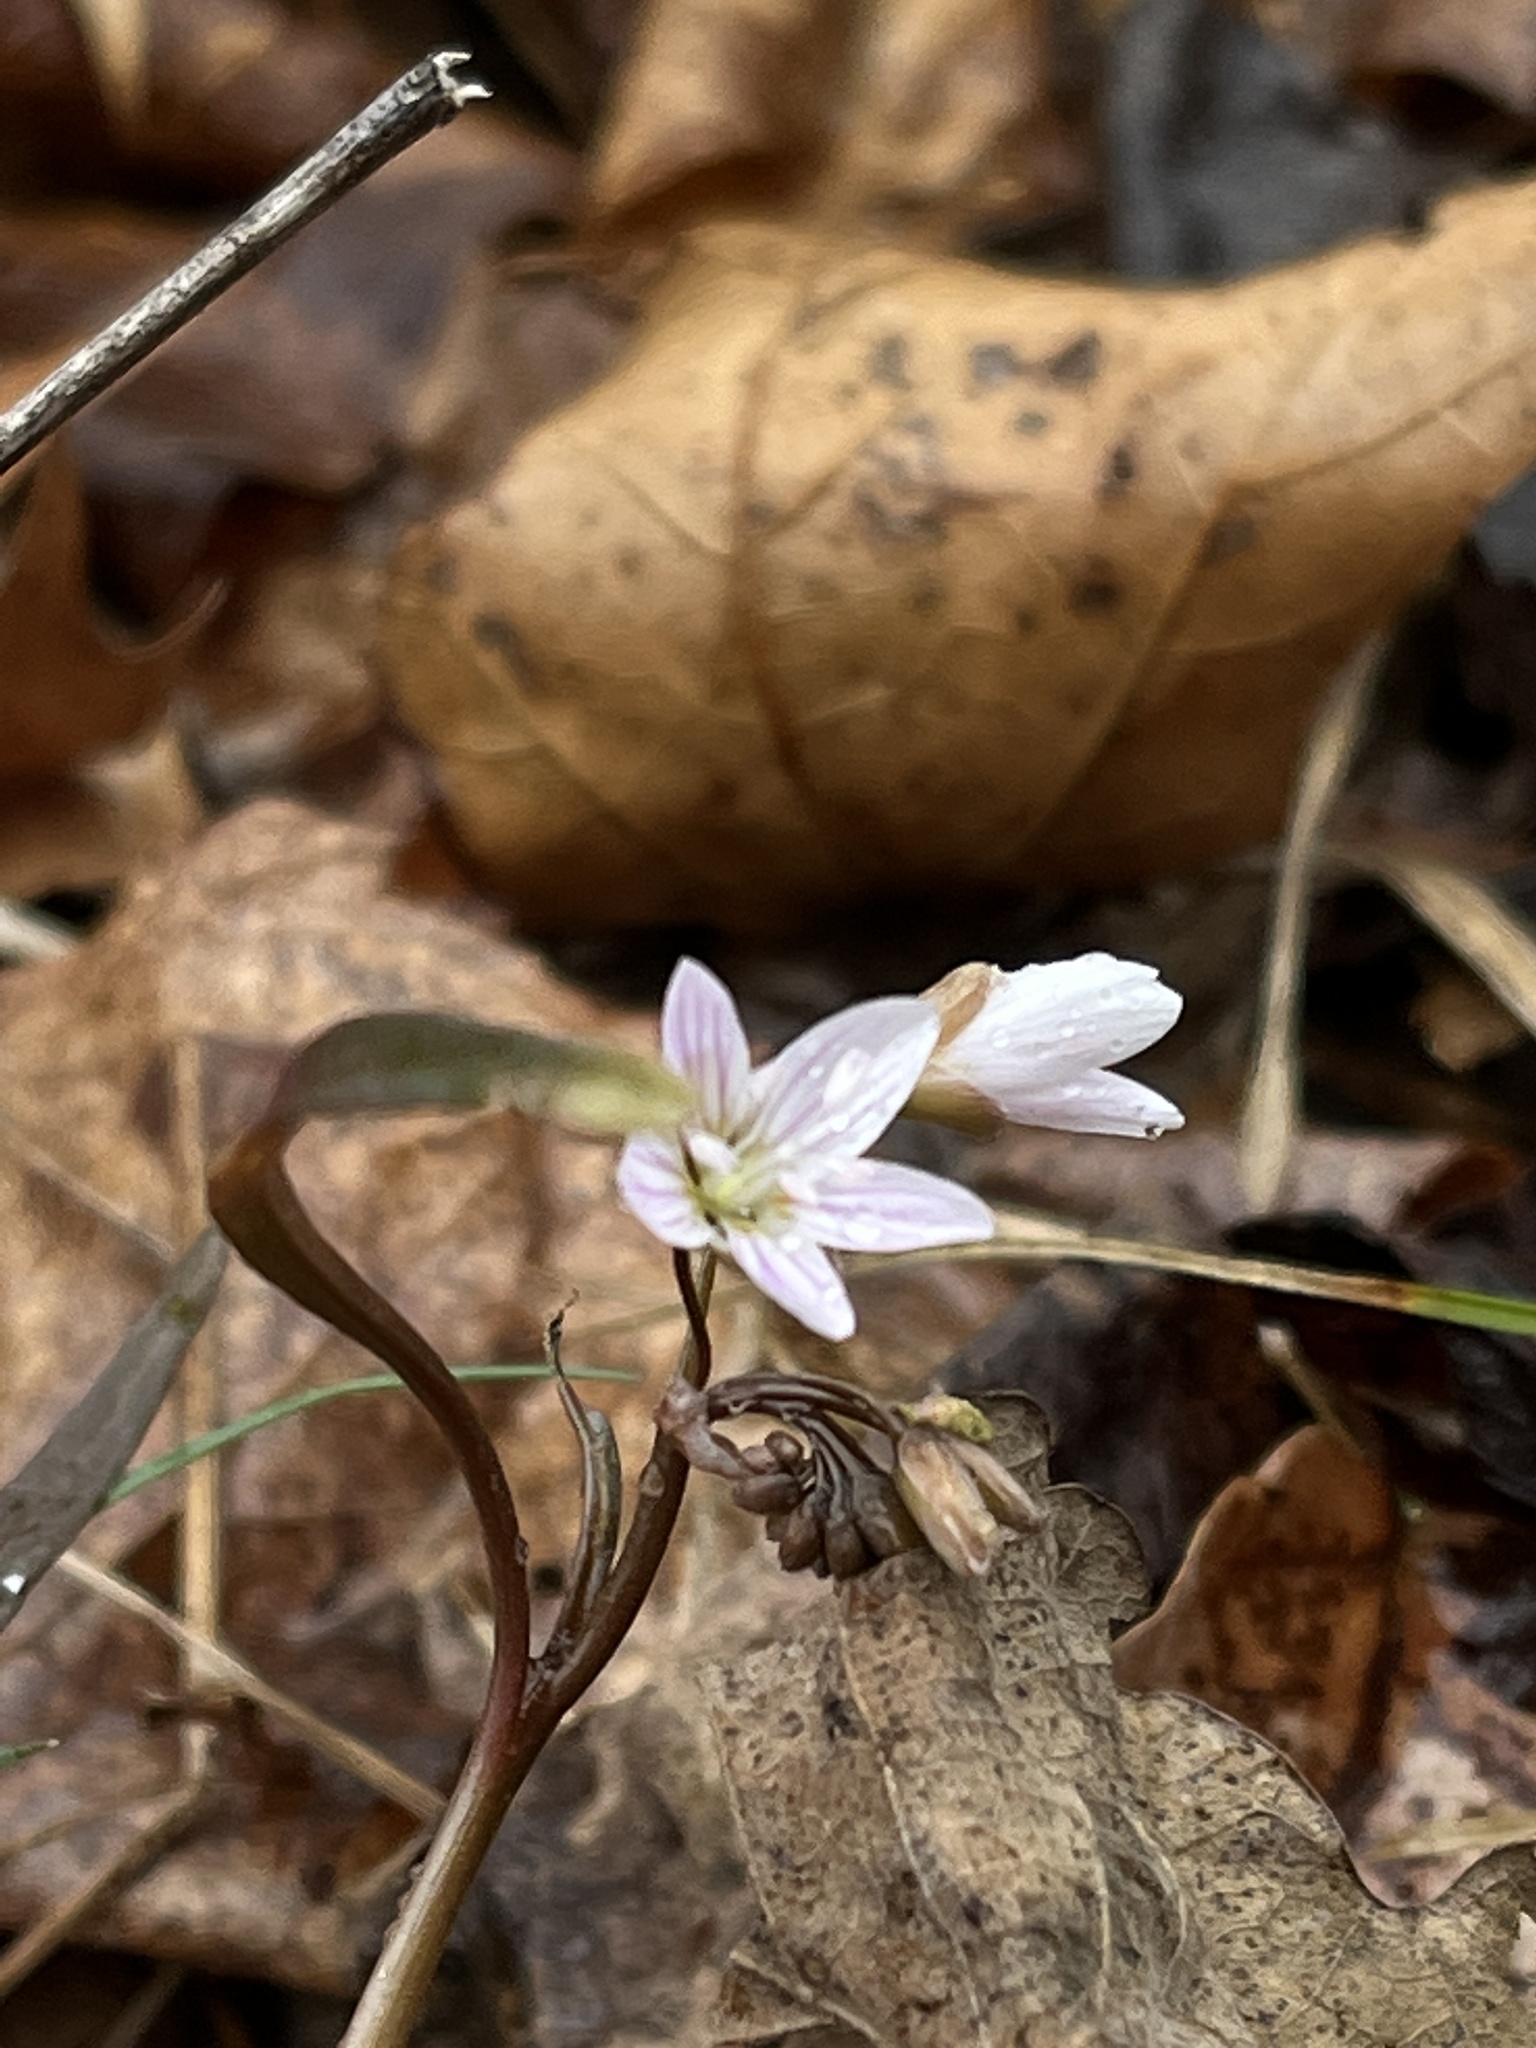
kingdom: Plantae
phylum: Tracheophyta
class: Magnoliopsida
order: Caryophyllales
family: Montiaceae
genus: Claytonia
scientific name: Claytonia virginica
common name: Virginia springbeauty
